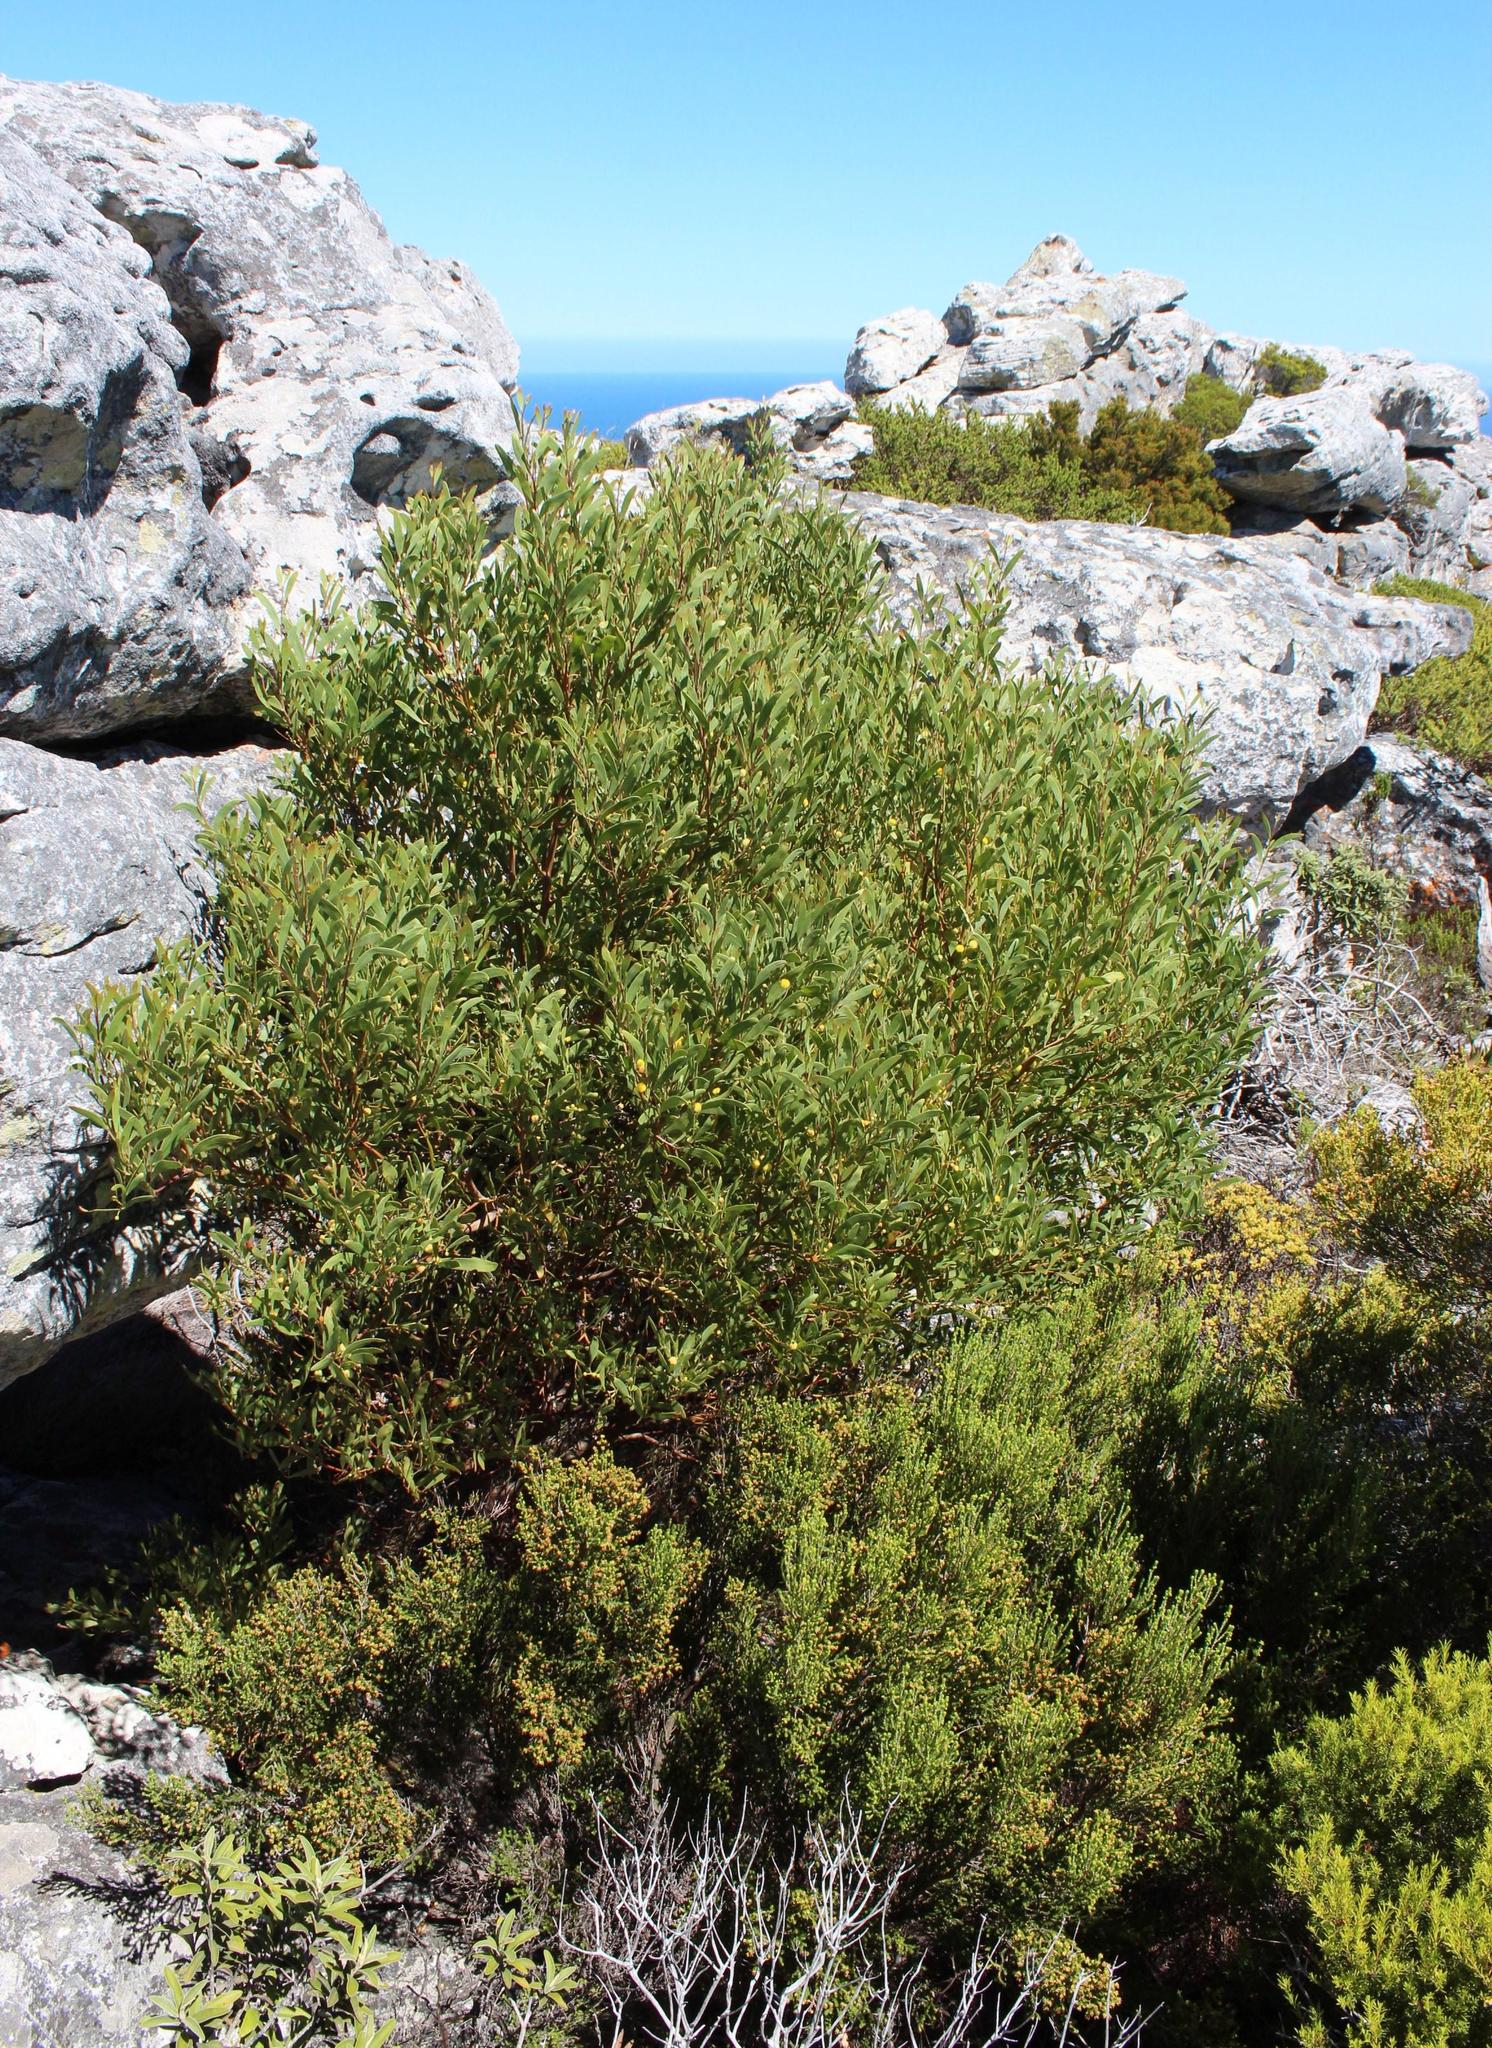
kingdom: Plantae
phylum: Tracheophyta
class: Magnoliopsida
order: Fabales
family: Fabaceae
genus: Acacia
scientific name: Acacia cyclops
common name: Coastal wattle
